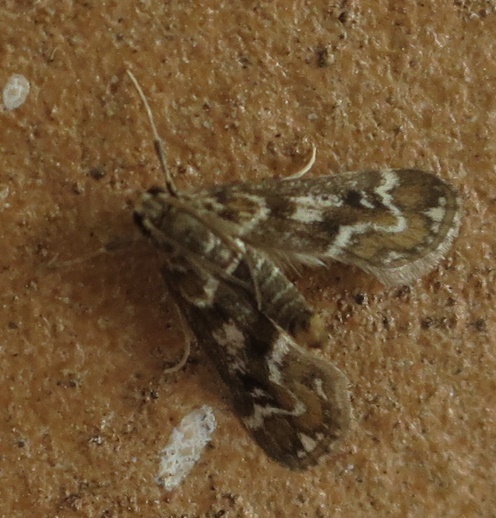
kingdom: Animalia
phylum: Arthropoda
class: Insecta
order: Lepidoptera
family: Crambidae
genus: Hygraula
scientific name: Hygraula nitens
